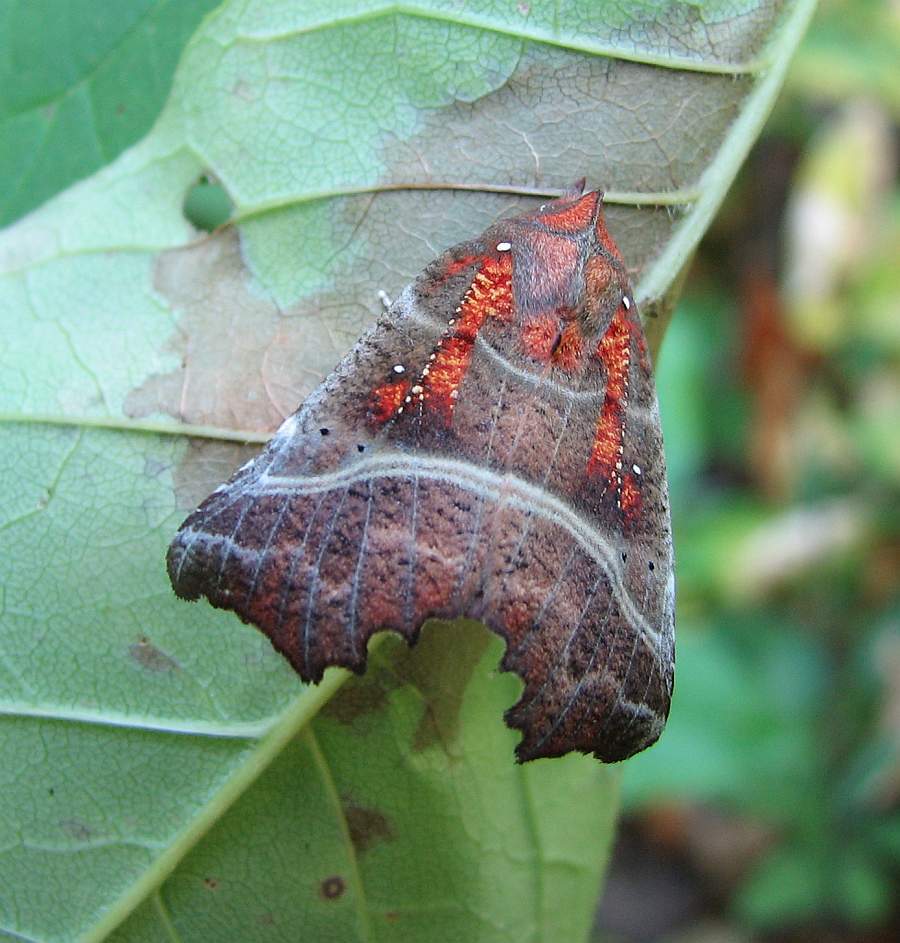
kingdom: Animalia
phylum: Arthropoda
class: Insecta
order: Lepidoptera
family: Erebidae
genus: Scoliopteryx
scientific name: Scoliopteryx libatrix
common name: Herald
